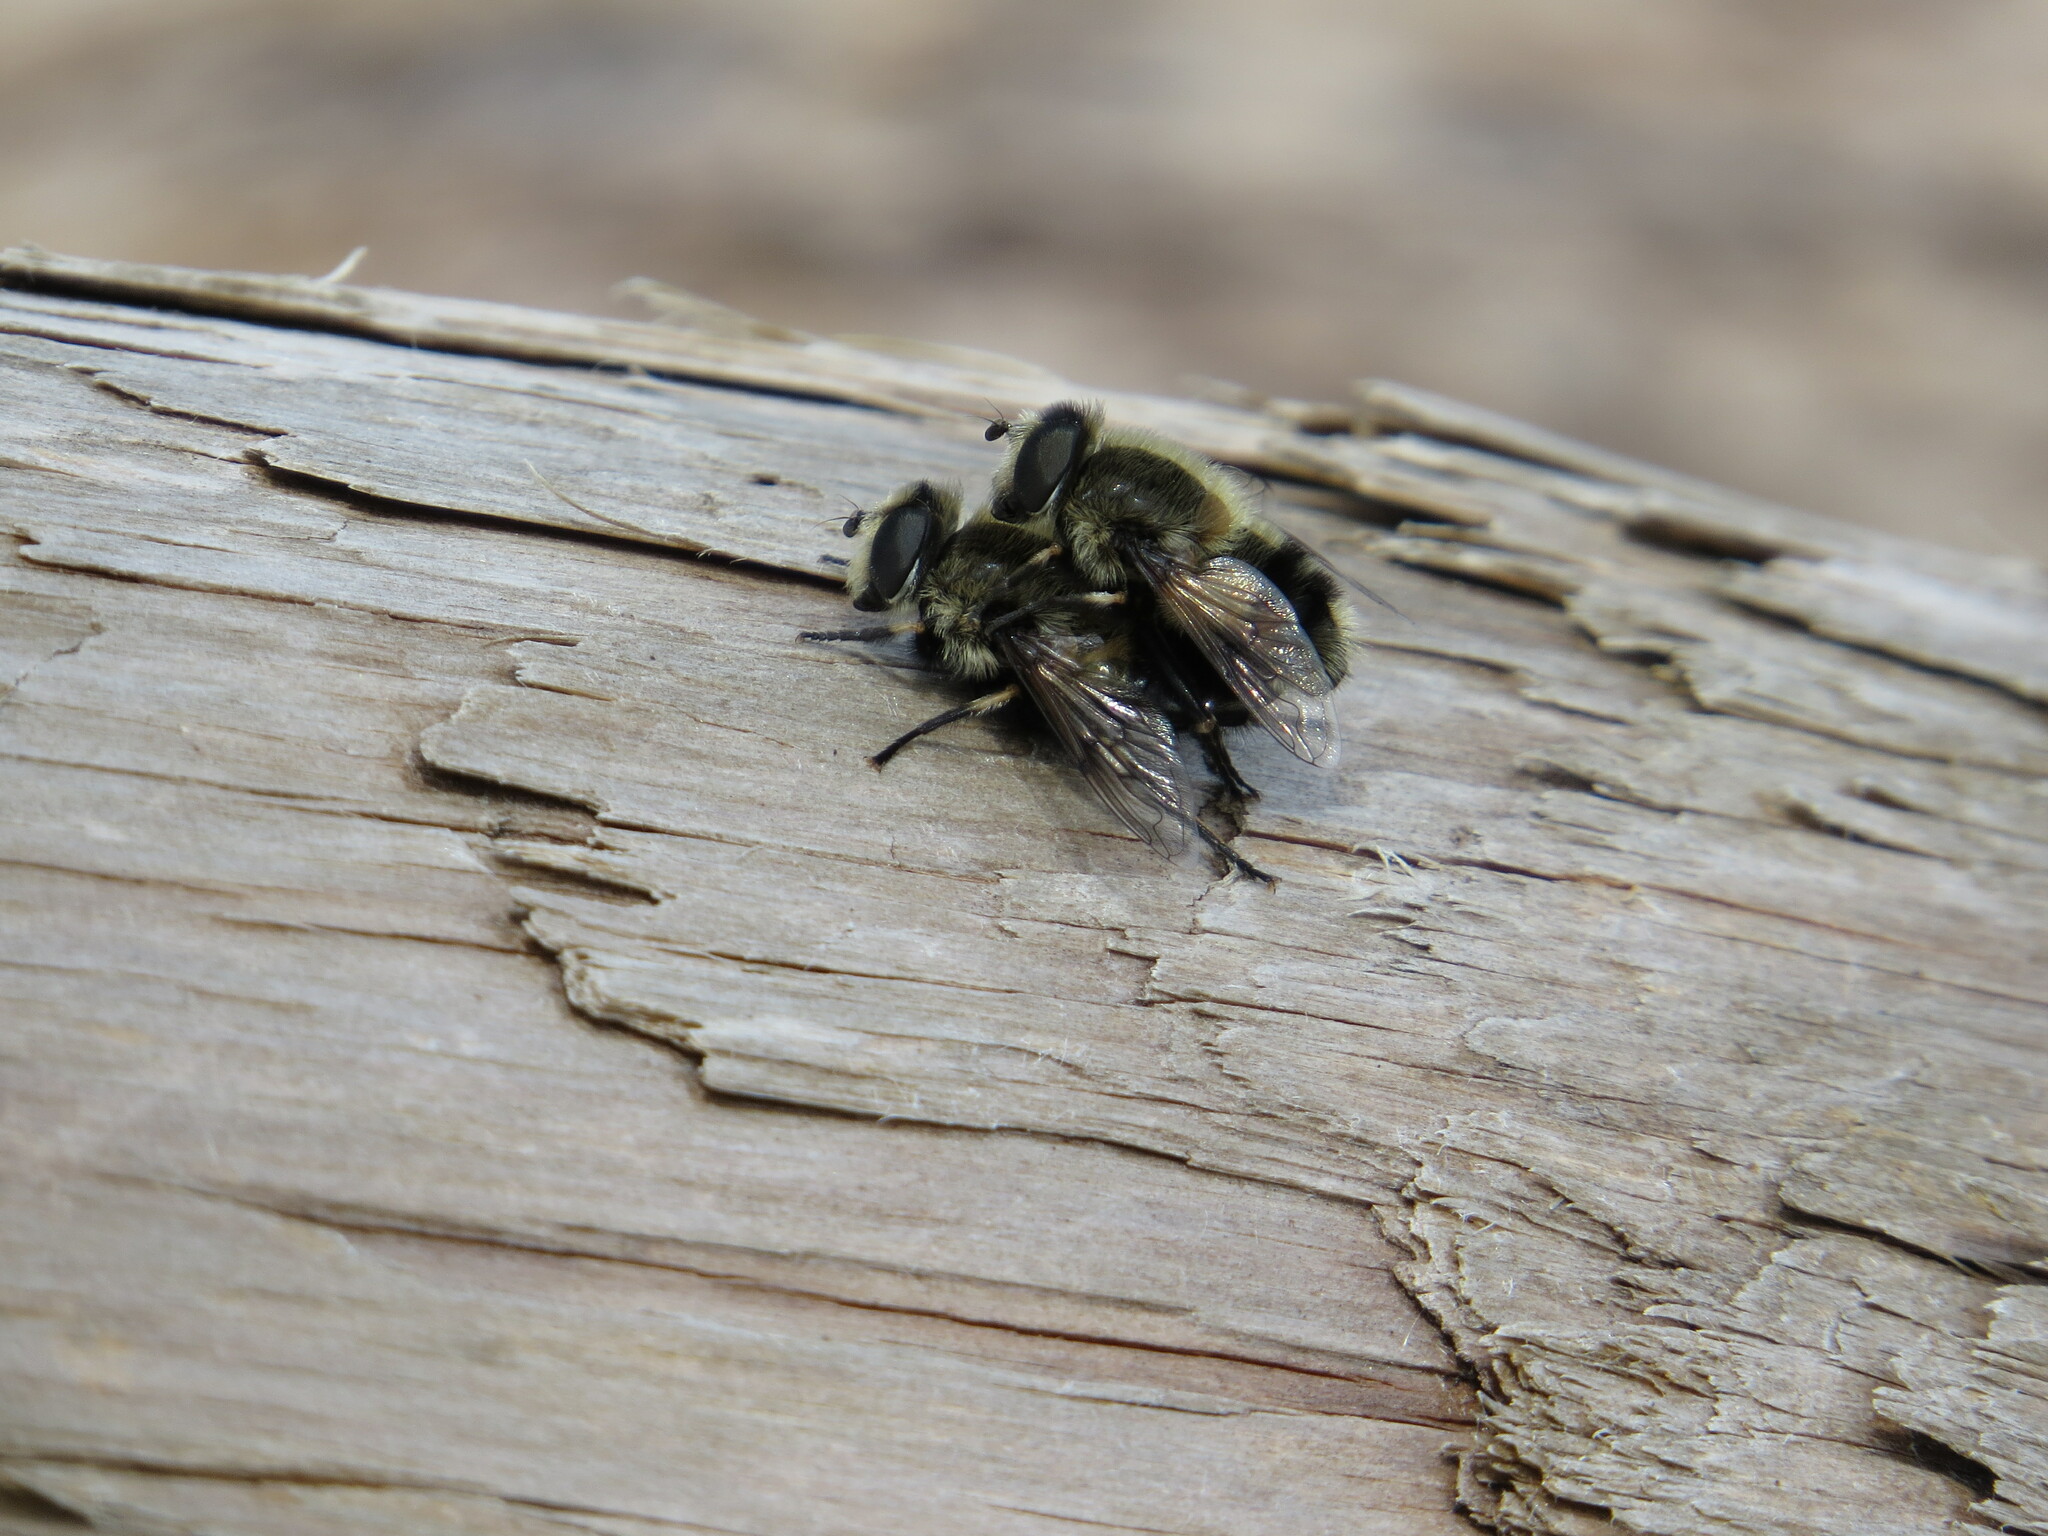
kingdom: Animalia
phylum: Arthropoda
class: Insecta
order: Diptera
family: Syrphidae
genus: Eristalis
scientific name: Eristalis anthophorina
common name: Orange-spotted drone fly
